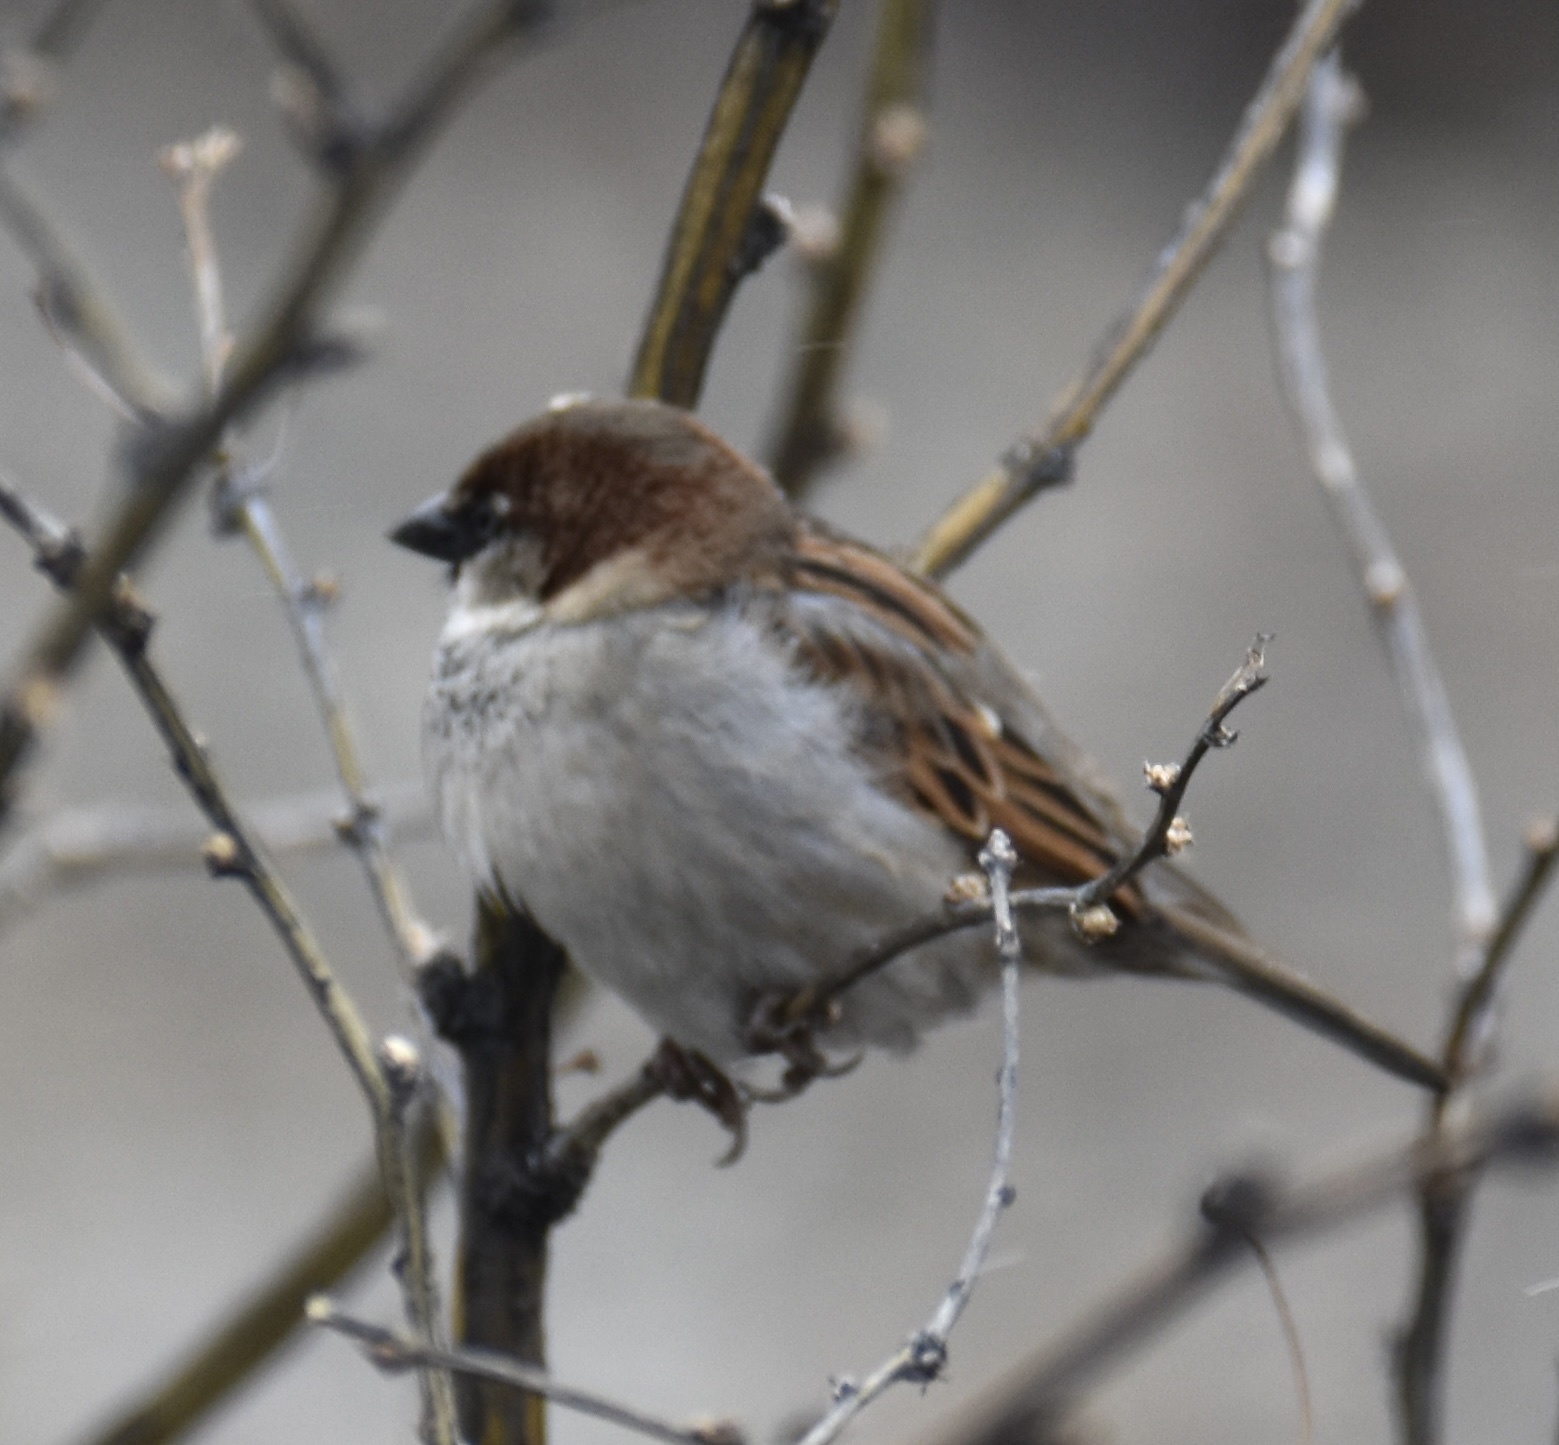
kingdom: Animalia
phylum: Chordata
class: Aves
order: Passeriformes
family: Passeridae
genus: Passer
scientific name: Passer domesticus
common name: House sparrow
